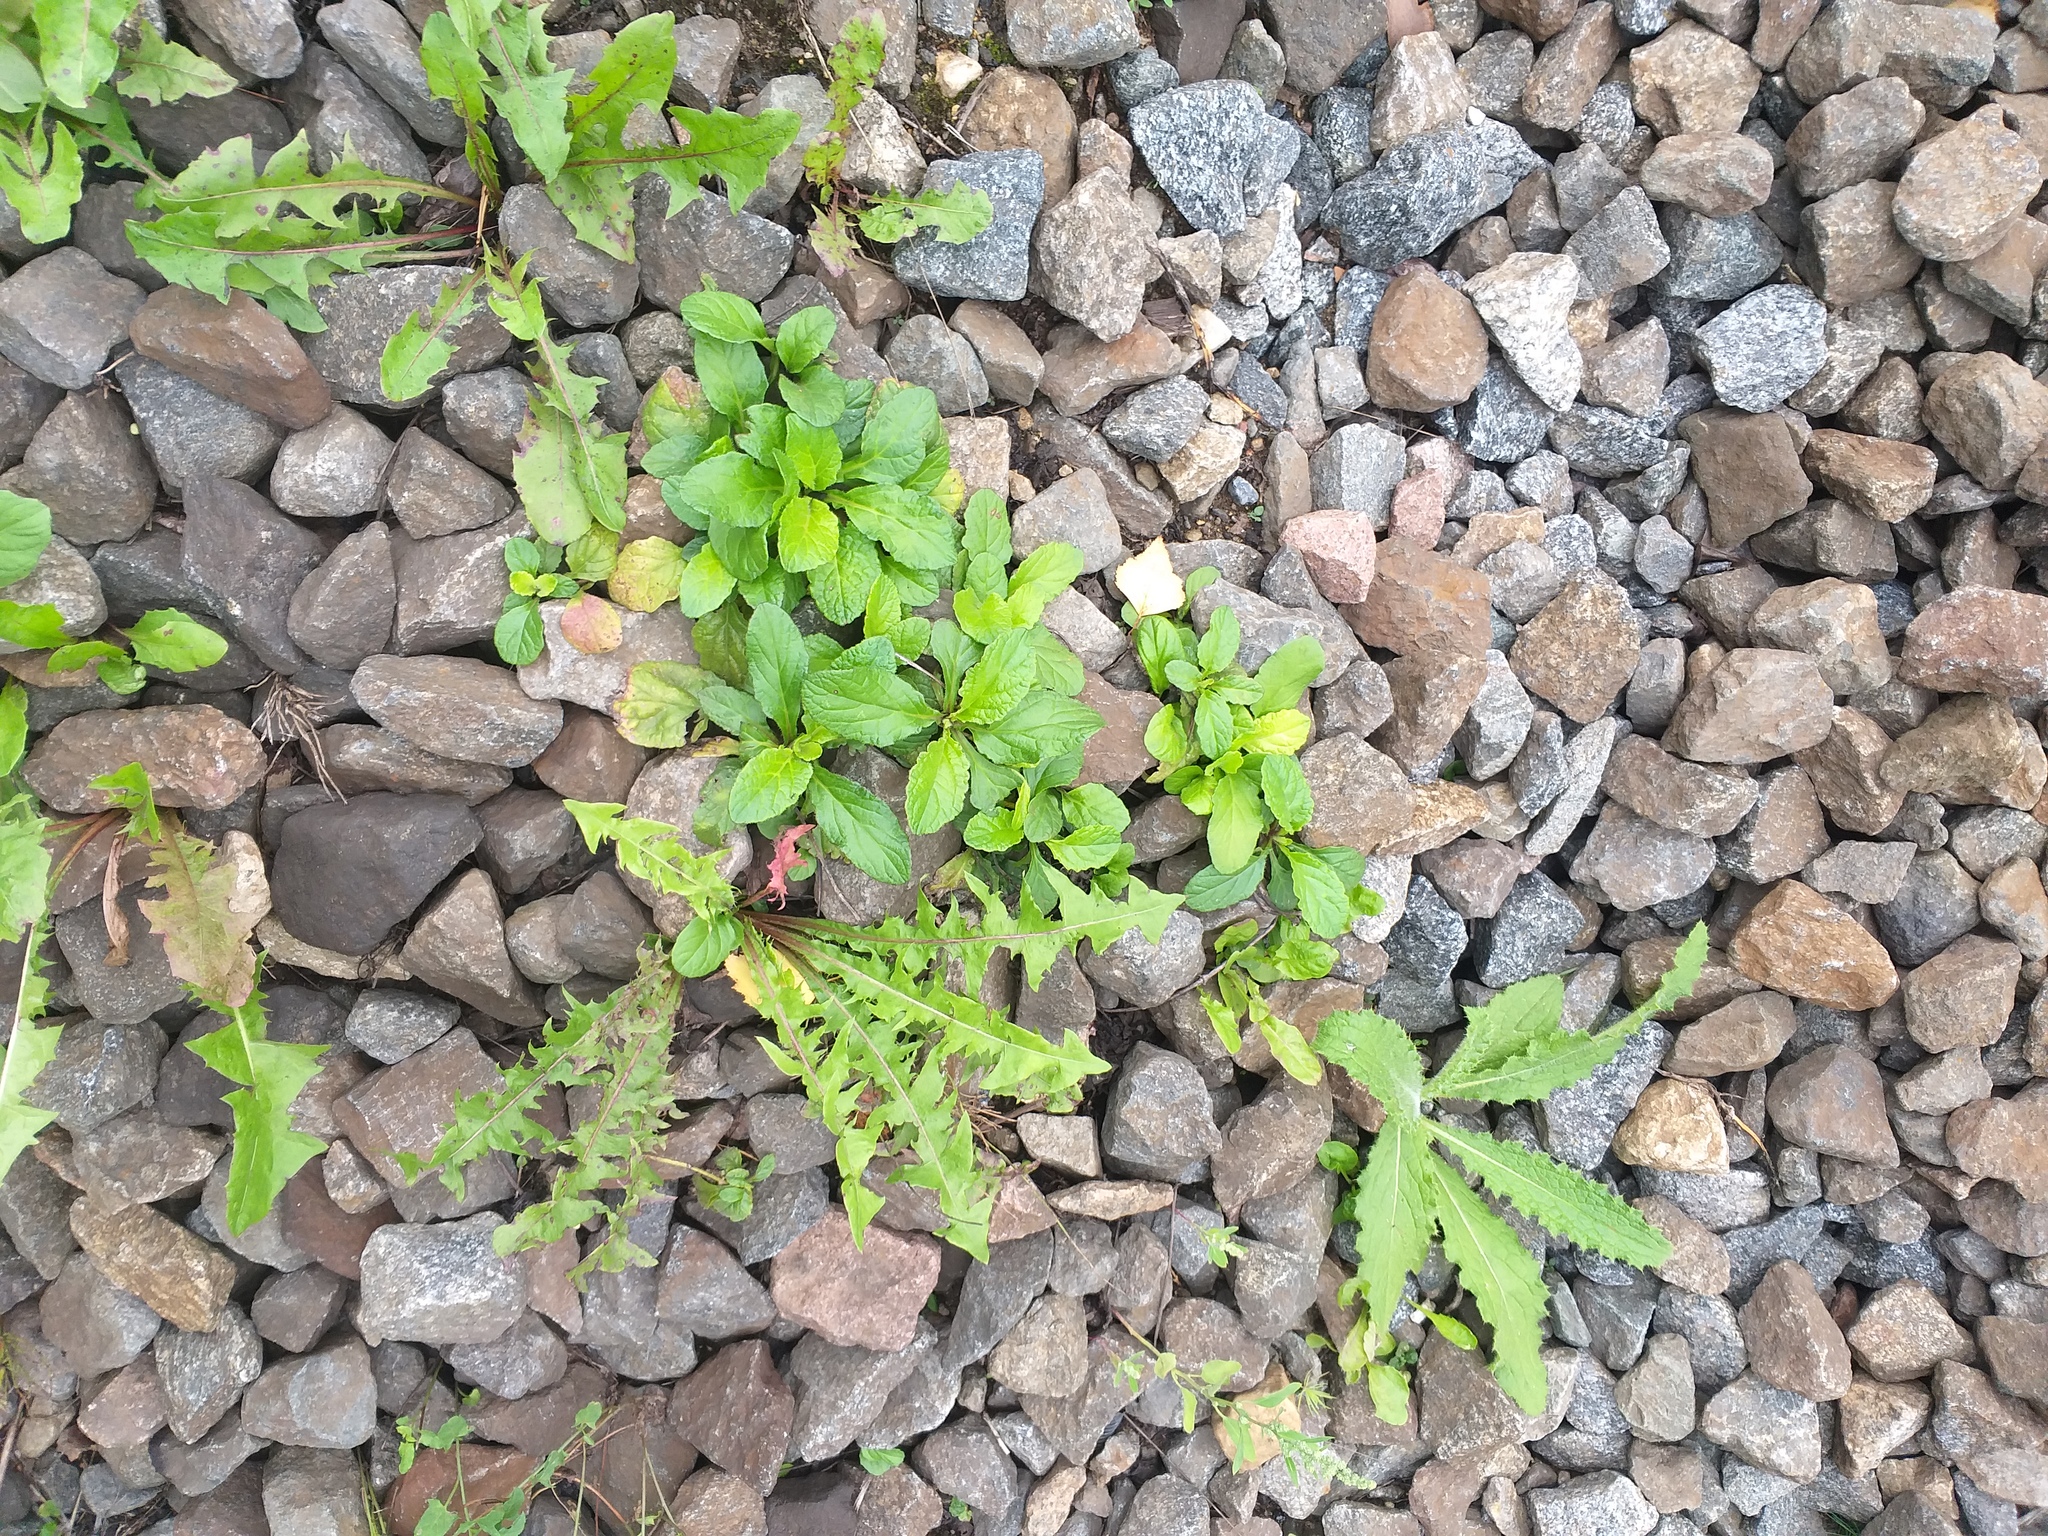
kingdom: Plantae
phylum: Tracheophyta
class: Magnoliopsida
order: Lamiales
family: Lamiaceae
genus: Ajuga
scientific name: Ajuga reptans
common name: Bugle
